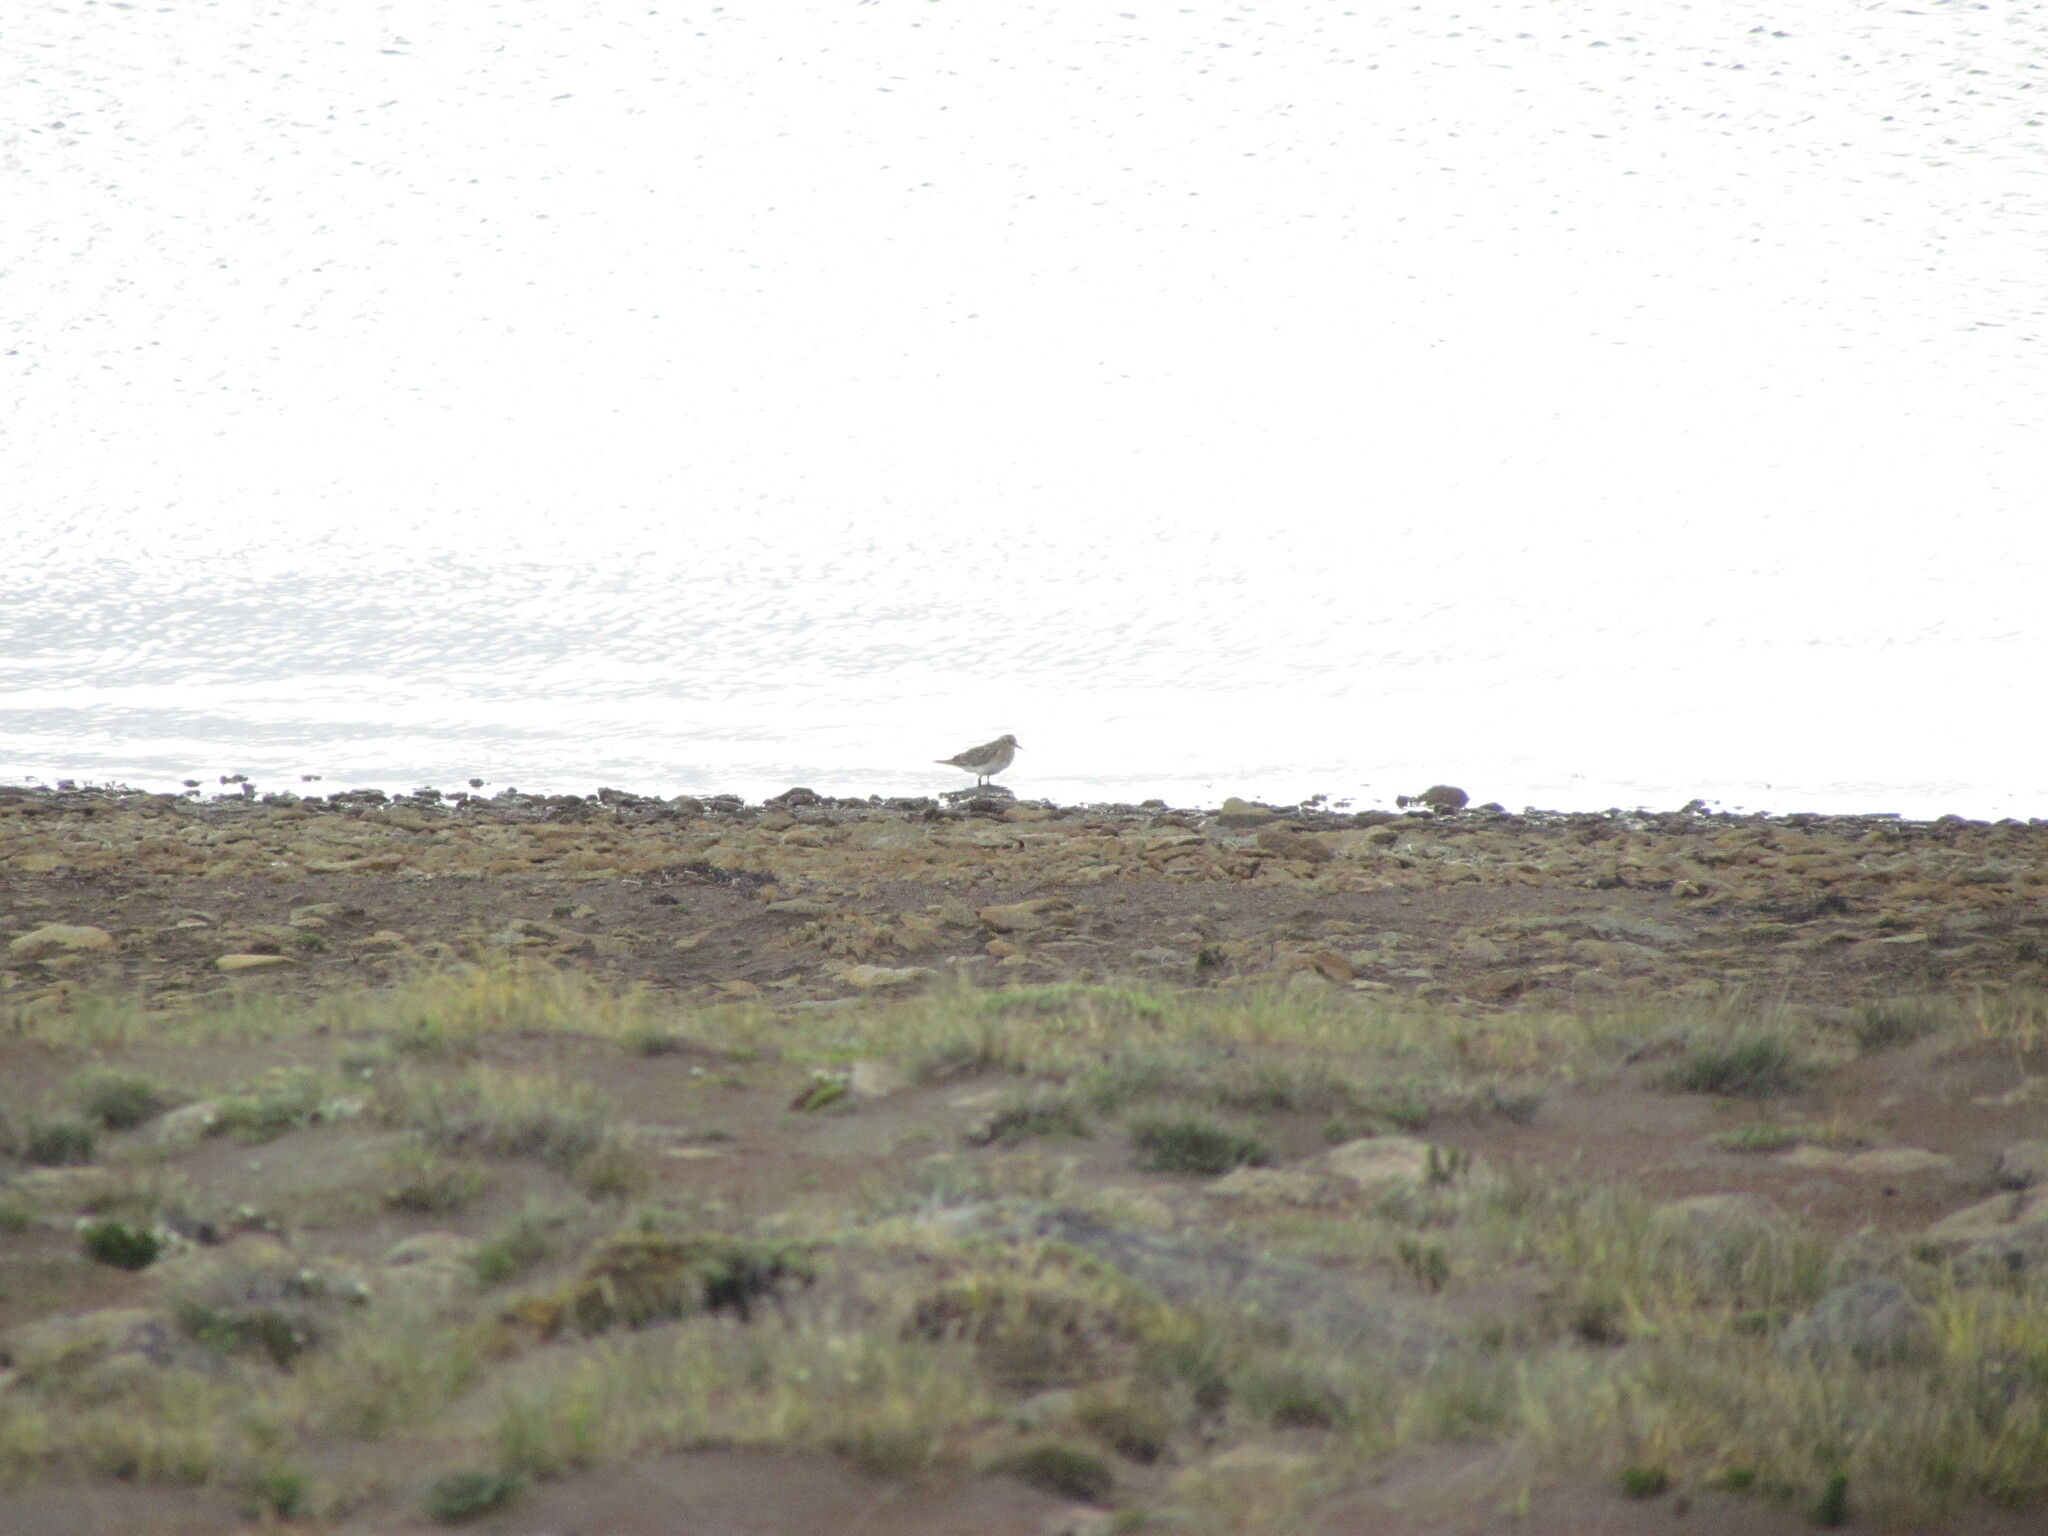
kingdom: Animalia
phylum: Chordata
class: Aves
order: Charadriiformes
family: Scolopacidae
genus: Calidris
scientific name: Calidris bairdii
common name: Baird's sandpiper
